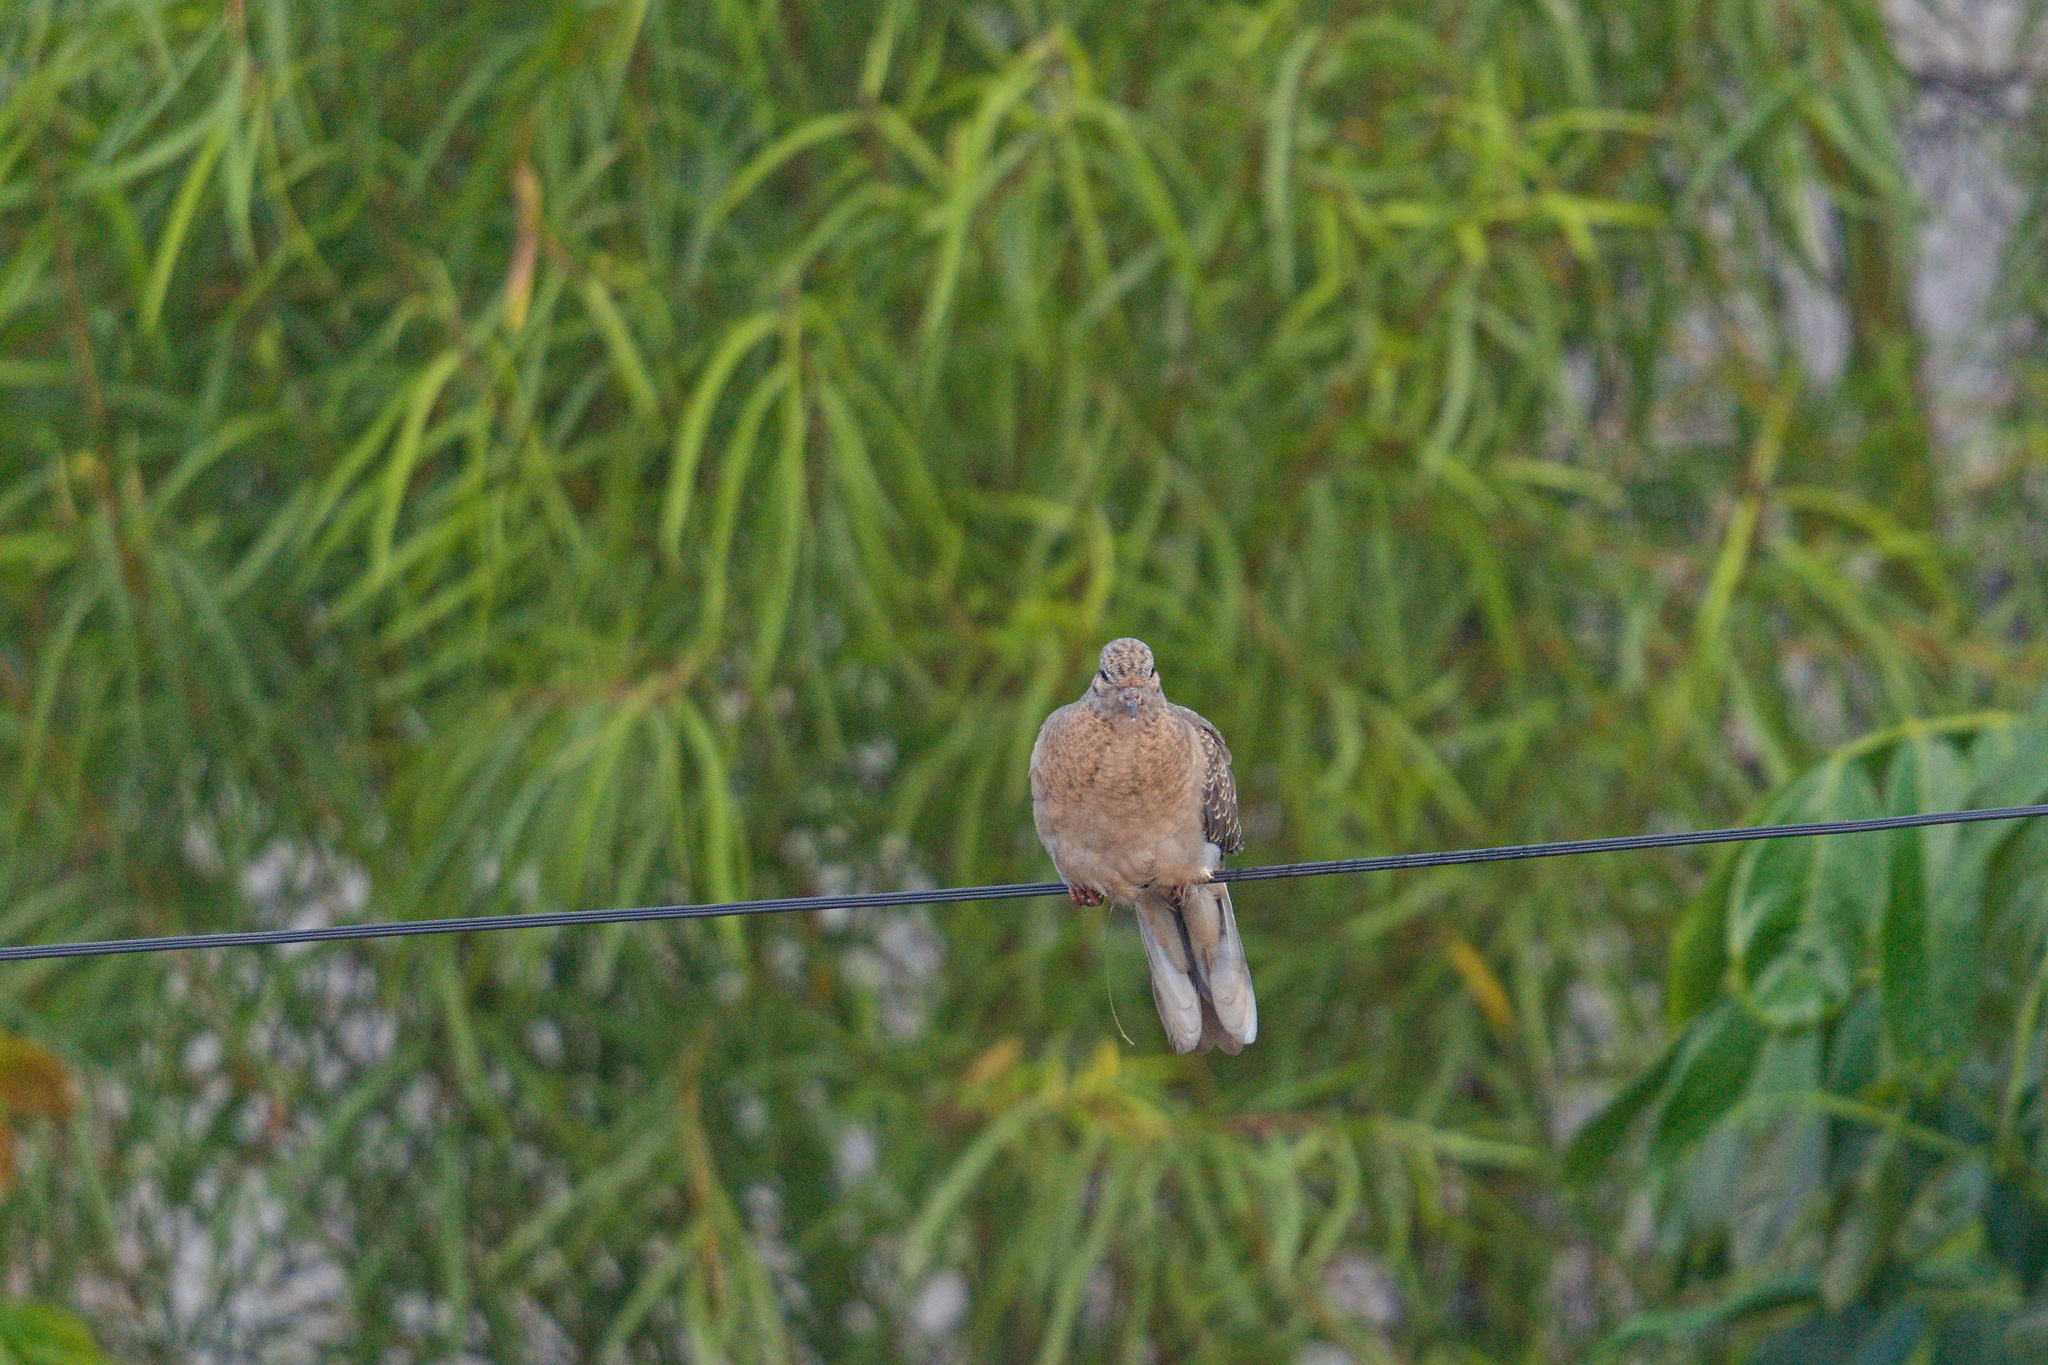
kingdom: Animalia
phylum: Chordata
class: Aves
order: Columbiformes
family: Columbidae
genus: Zenaida
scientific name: Zenaida auriculata
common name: Eared dove
